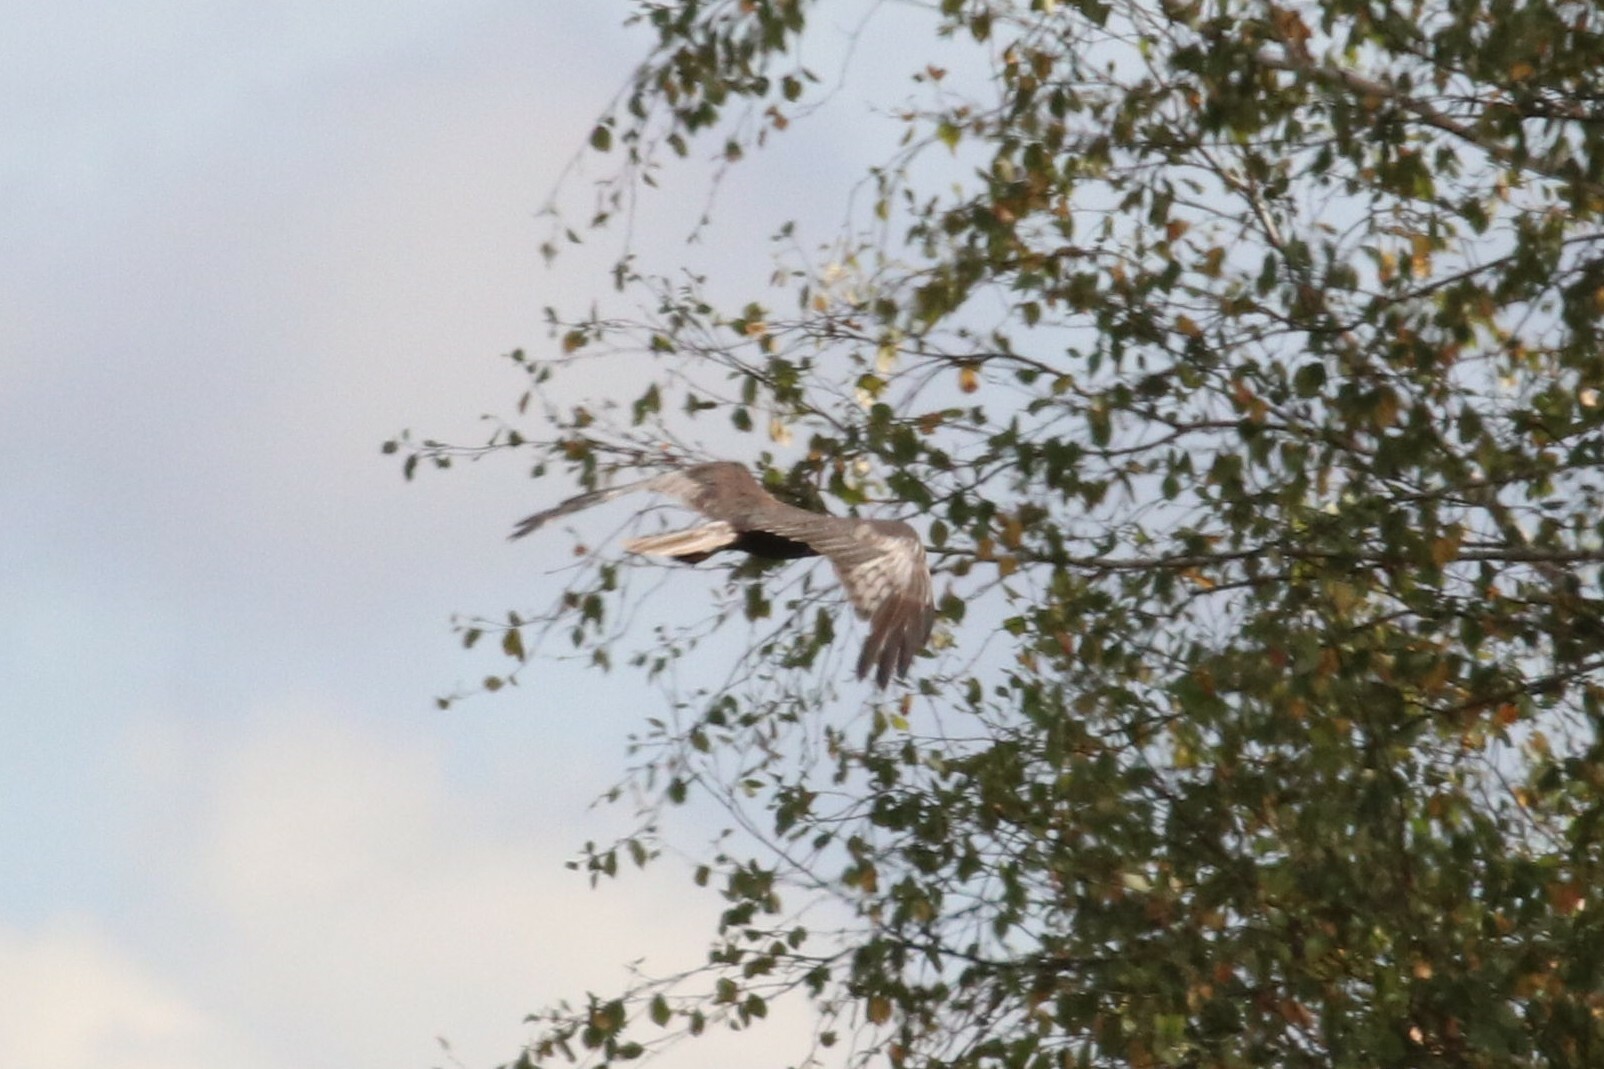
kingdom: Animalia
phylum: Chordata
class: Aves
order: Accipitriformes
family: Accipitridae
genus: Circus
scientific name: Circus aeruginosus
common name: Western marsh harrier
